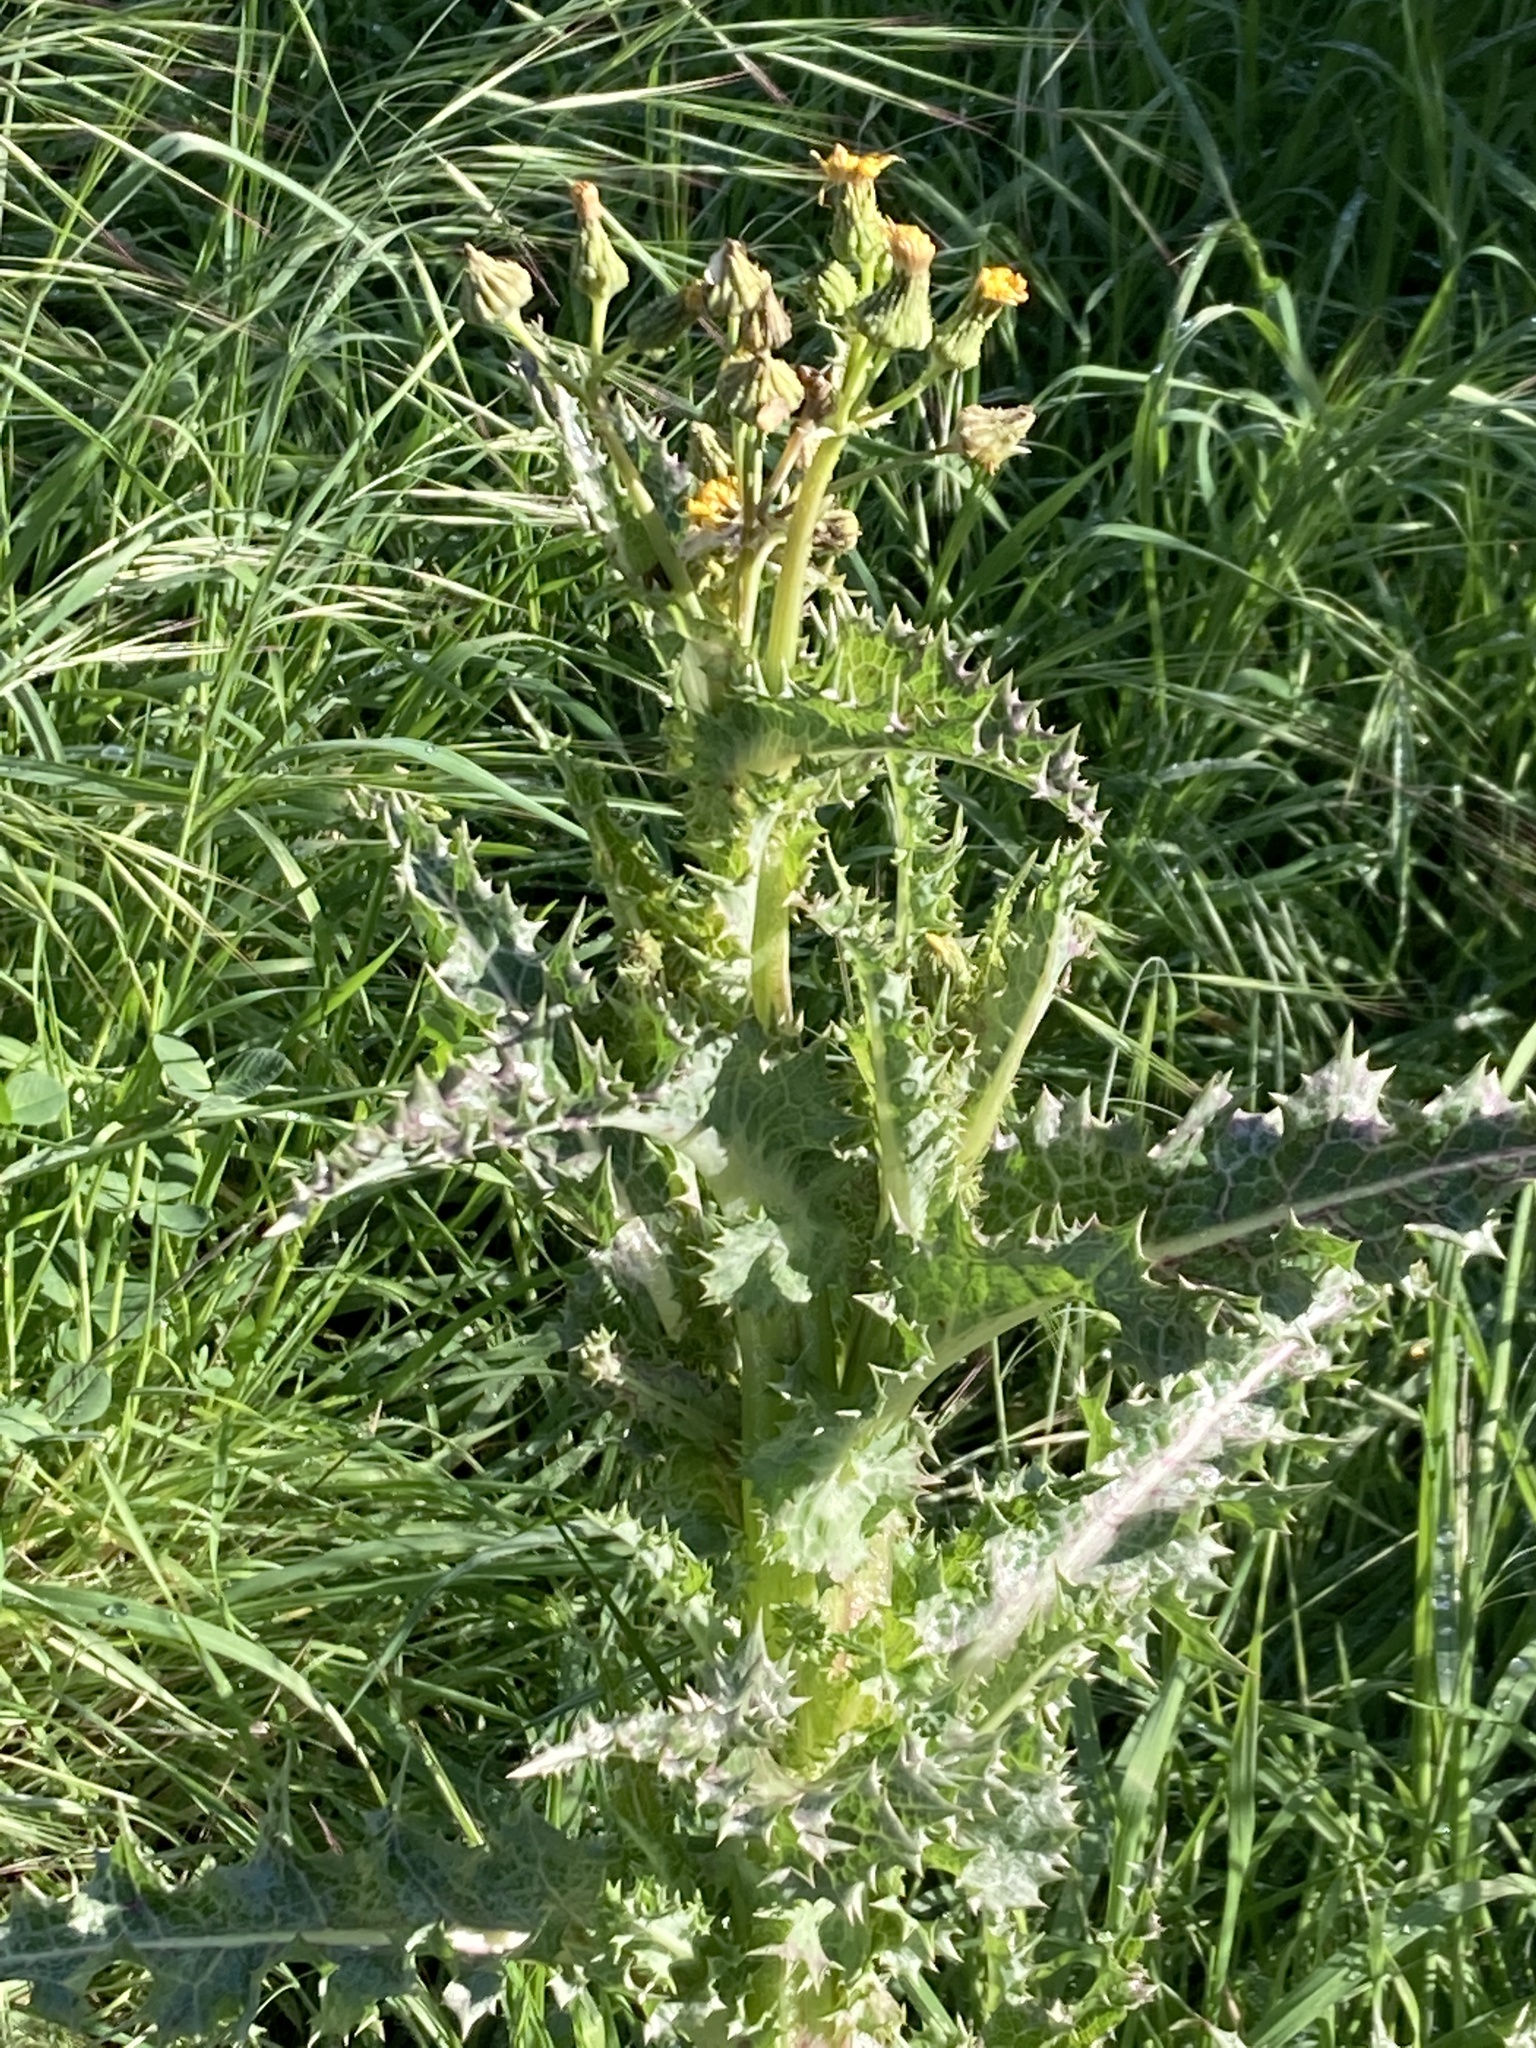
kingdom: Plantae
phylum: Tracheophyta
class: Magnoliopsida
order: Asterales
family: Asteraceae
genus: Sonchus
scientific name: Sonchus asper
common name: Prickly sow-thistle
